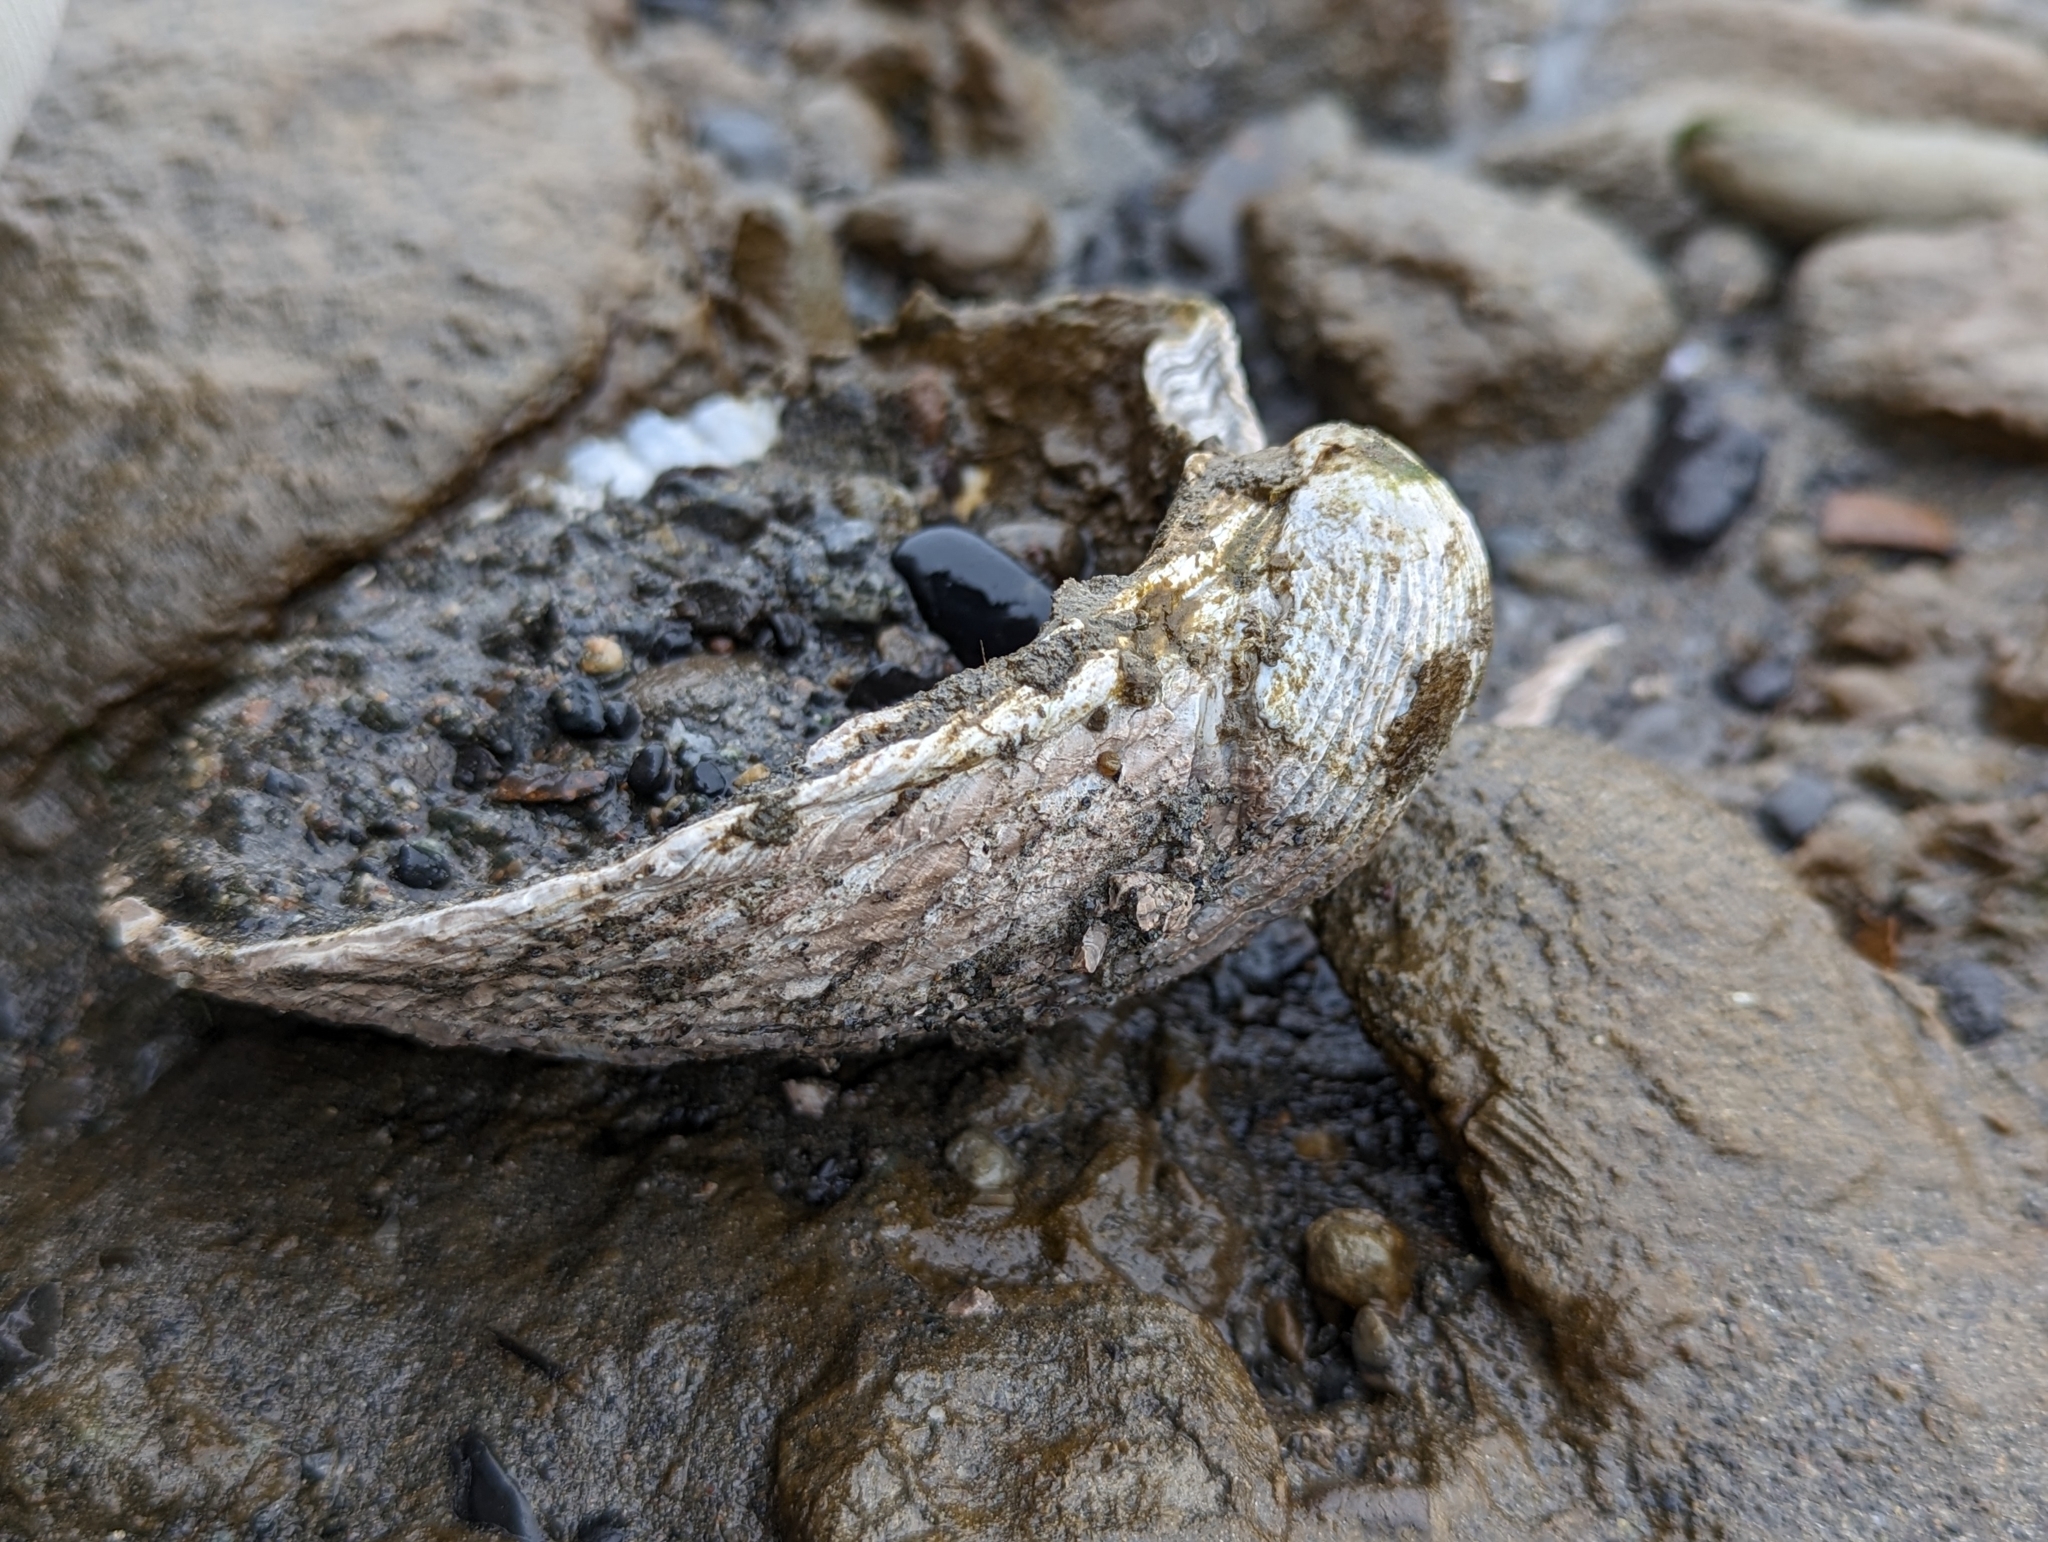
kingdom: Animalia
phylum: Mollusca
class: Bivalvia
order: Cardiida
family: Cardiidae
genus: Clinocardium
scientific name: Clinocardium nuttallii
